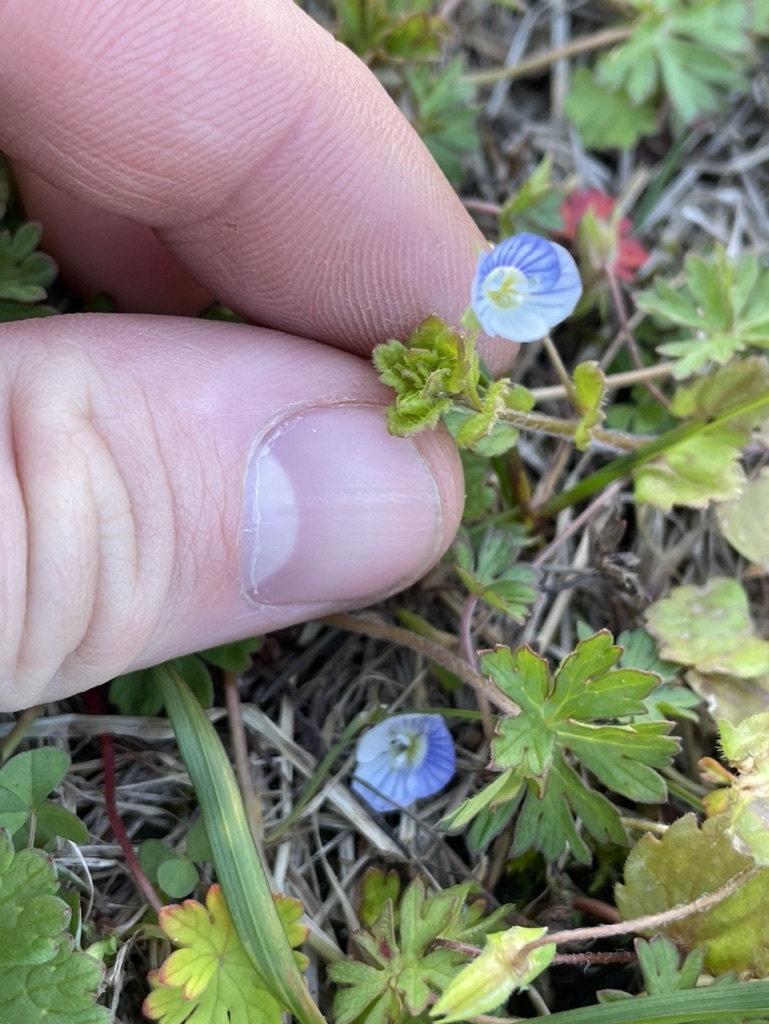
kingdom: Plantae
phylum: Tracheophyta
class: Magnoliopsida
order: Lamiales
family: Plantaginaceae
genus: Veronica
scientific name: Veronica persica
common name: Common field-speedwell
